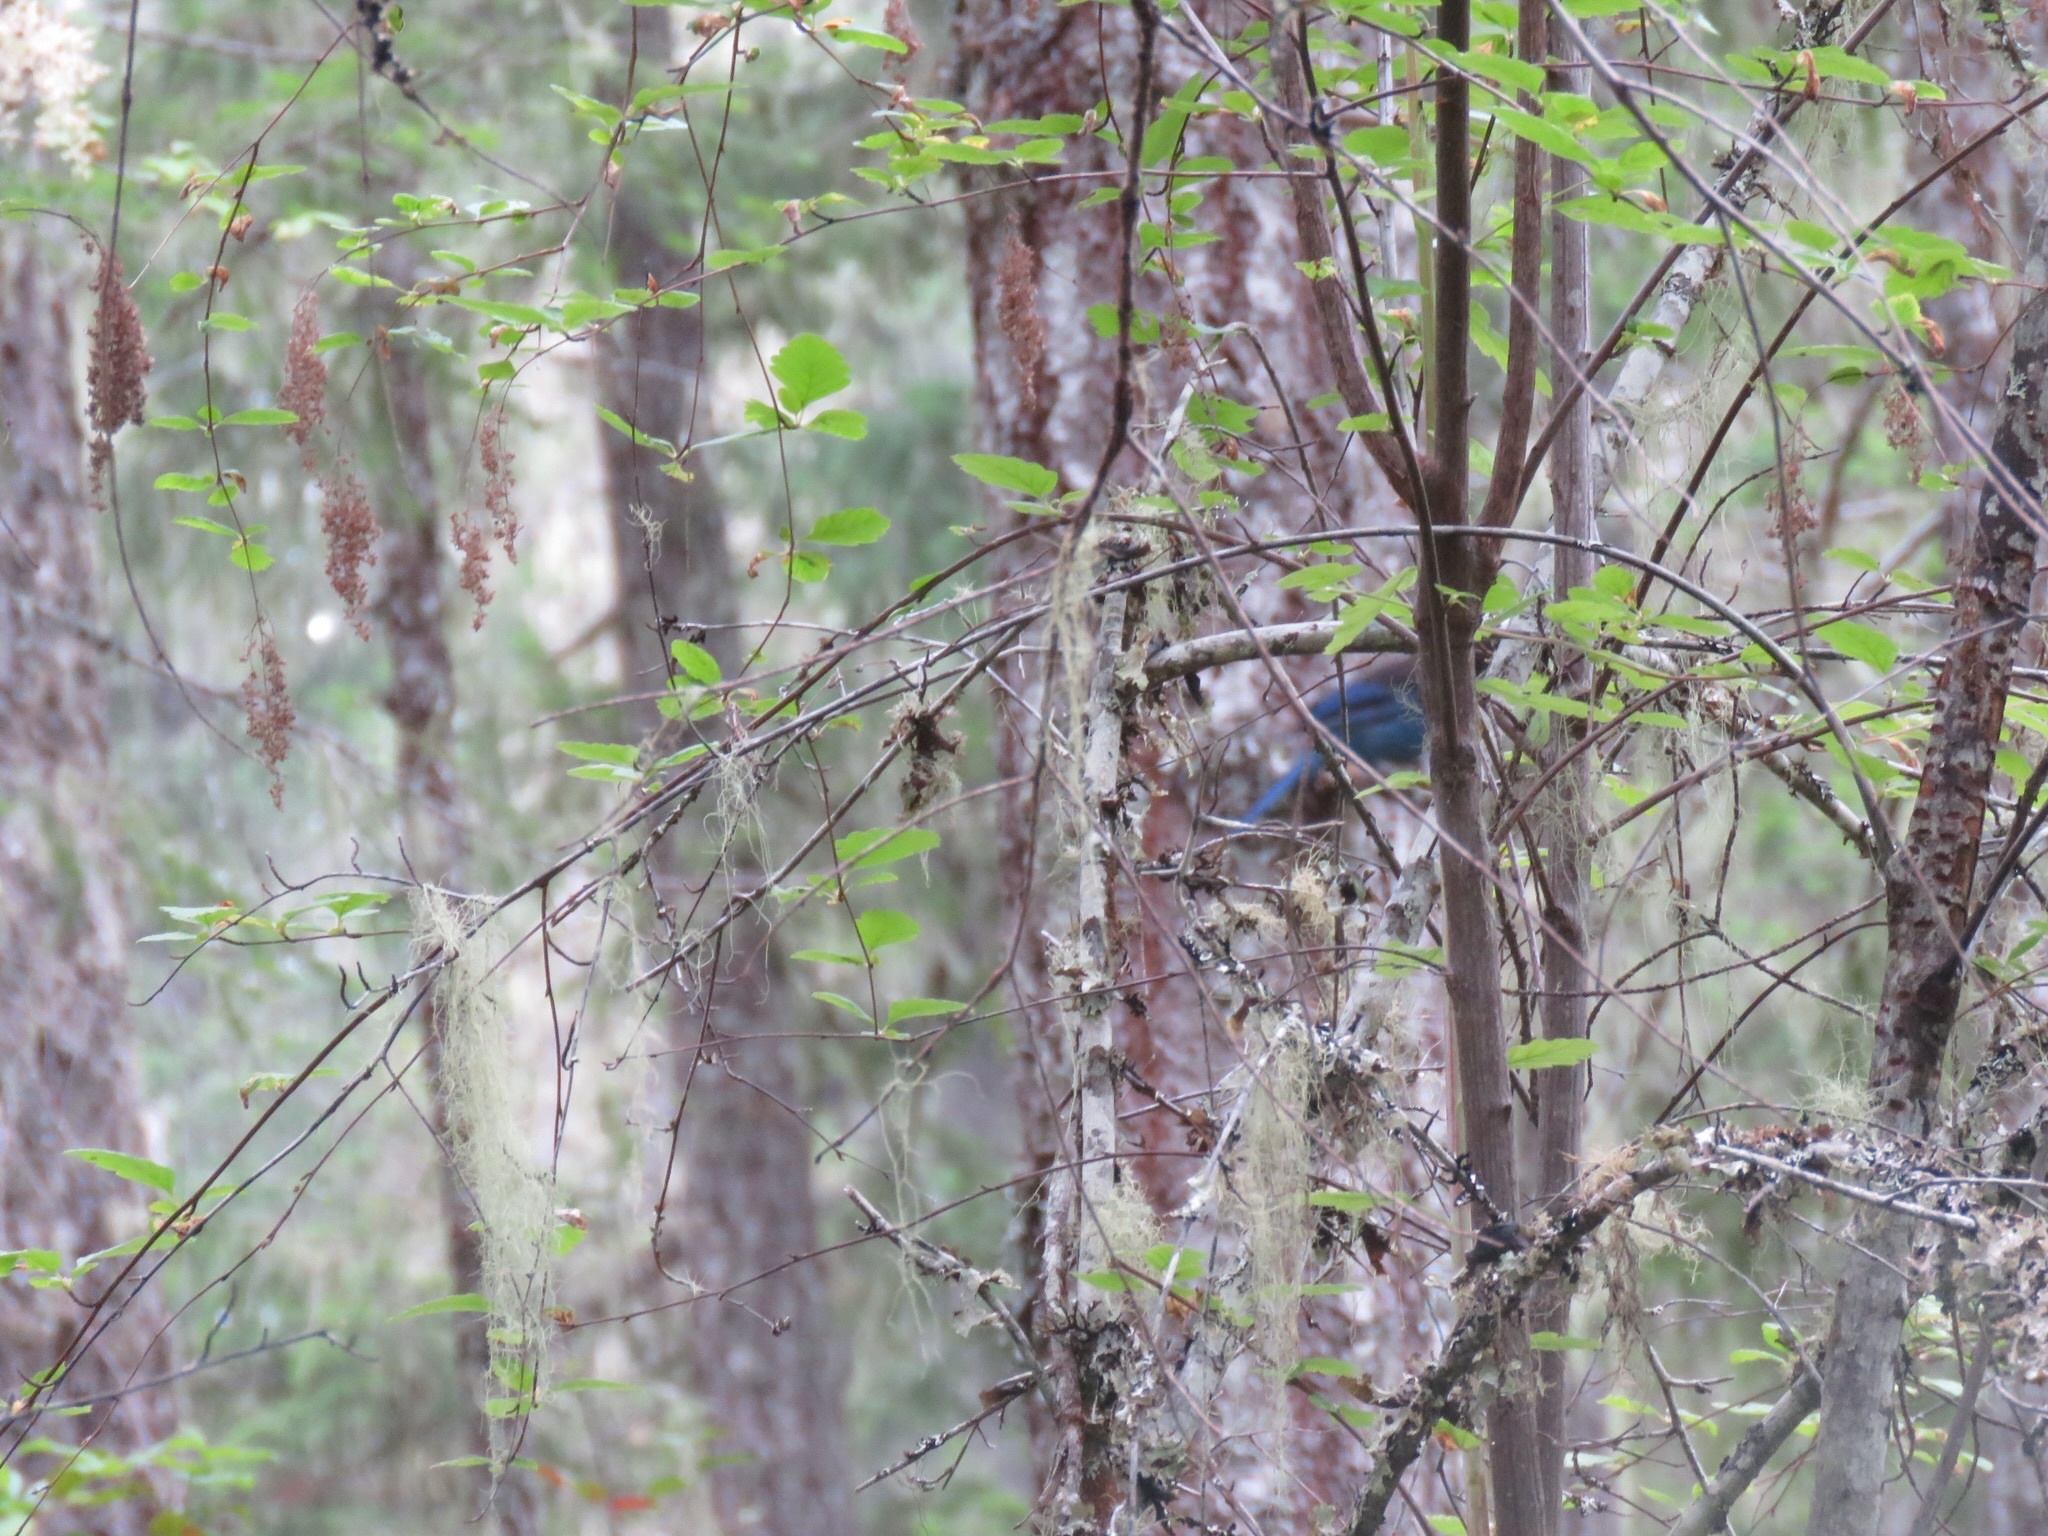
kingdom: Animalia
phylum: Chordata
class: Aves
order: Passeriformes
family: Corvidae
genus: Cyanocitta
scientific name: Cyanocitta stelleri
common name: Steller's jay
